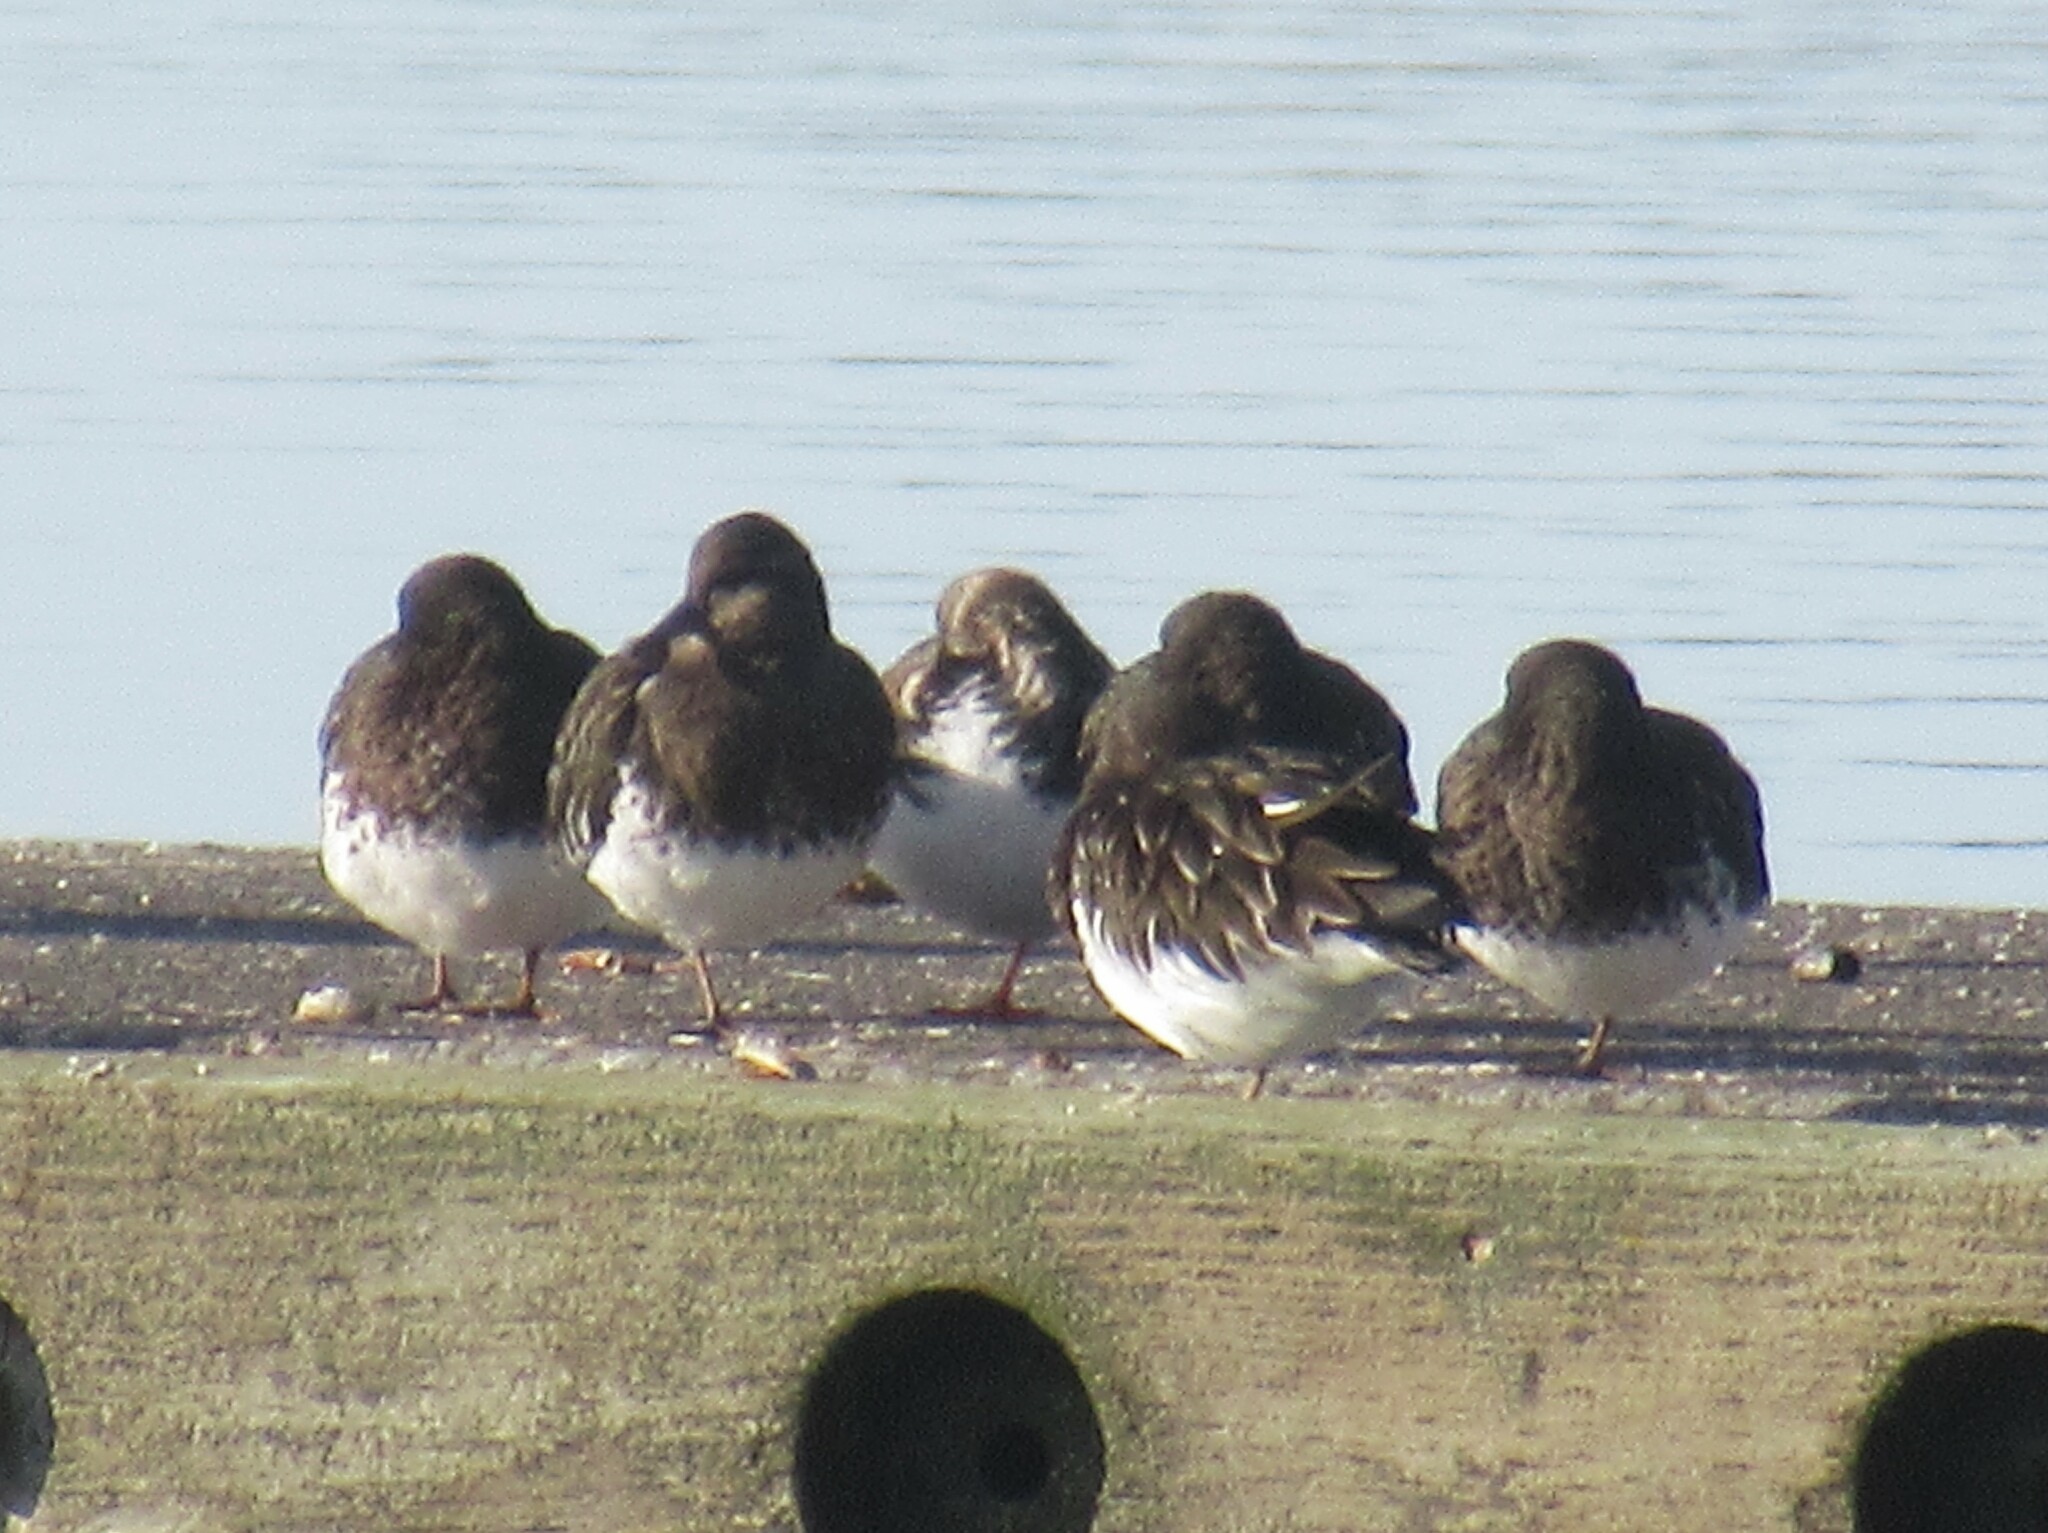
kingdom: Animalia
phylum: Chordata
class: Aves
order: Charadriiformes
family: Scolopacidae
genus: Arenaria
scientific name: Arenaria melanocephala
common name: Black turnstone
